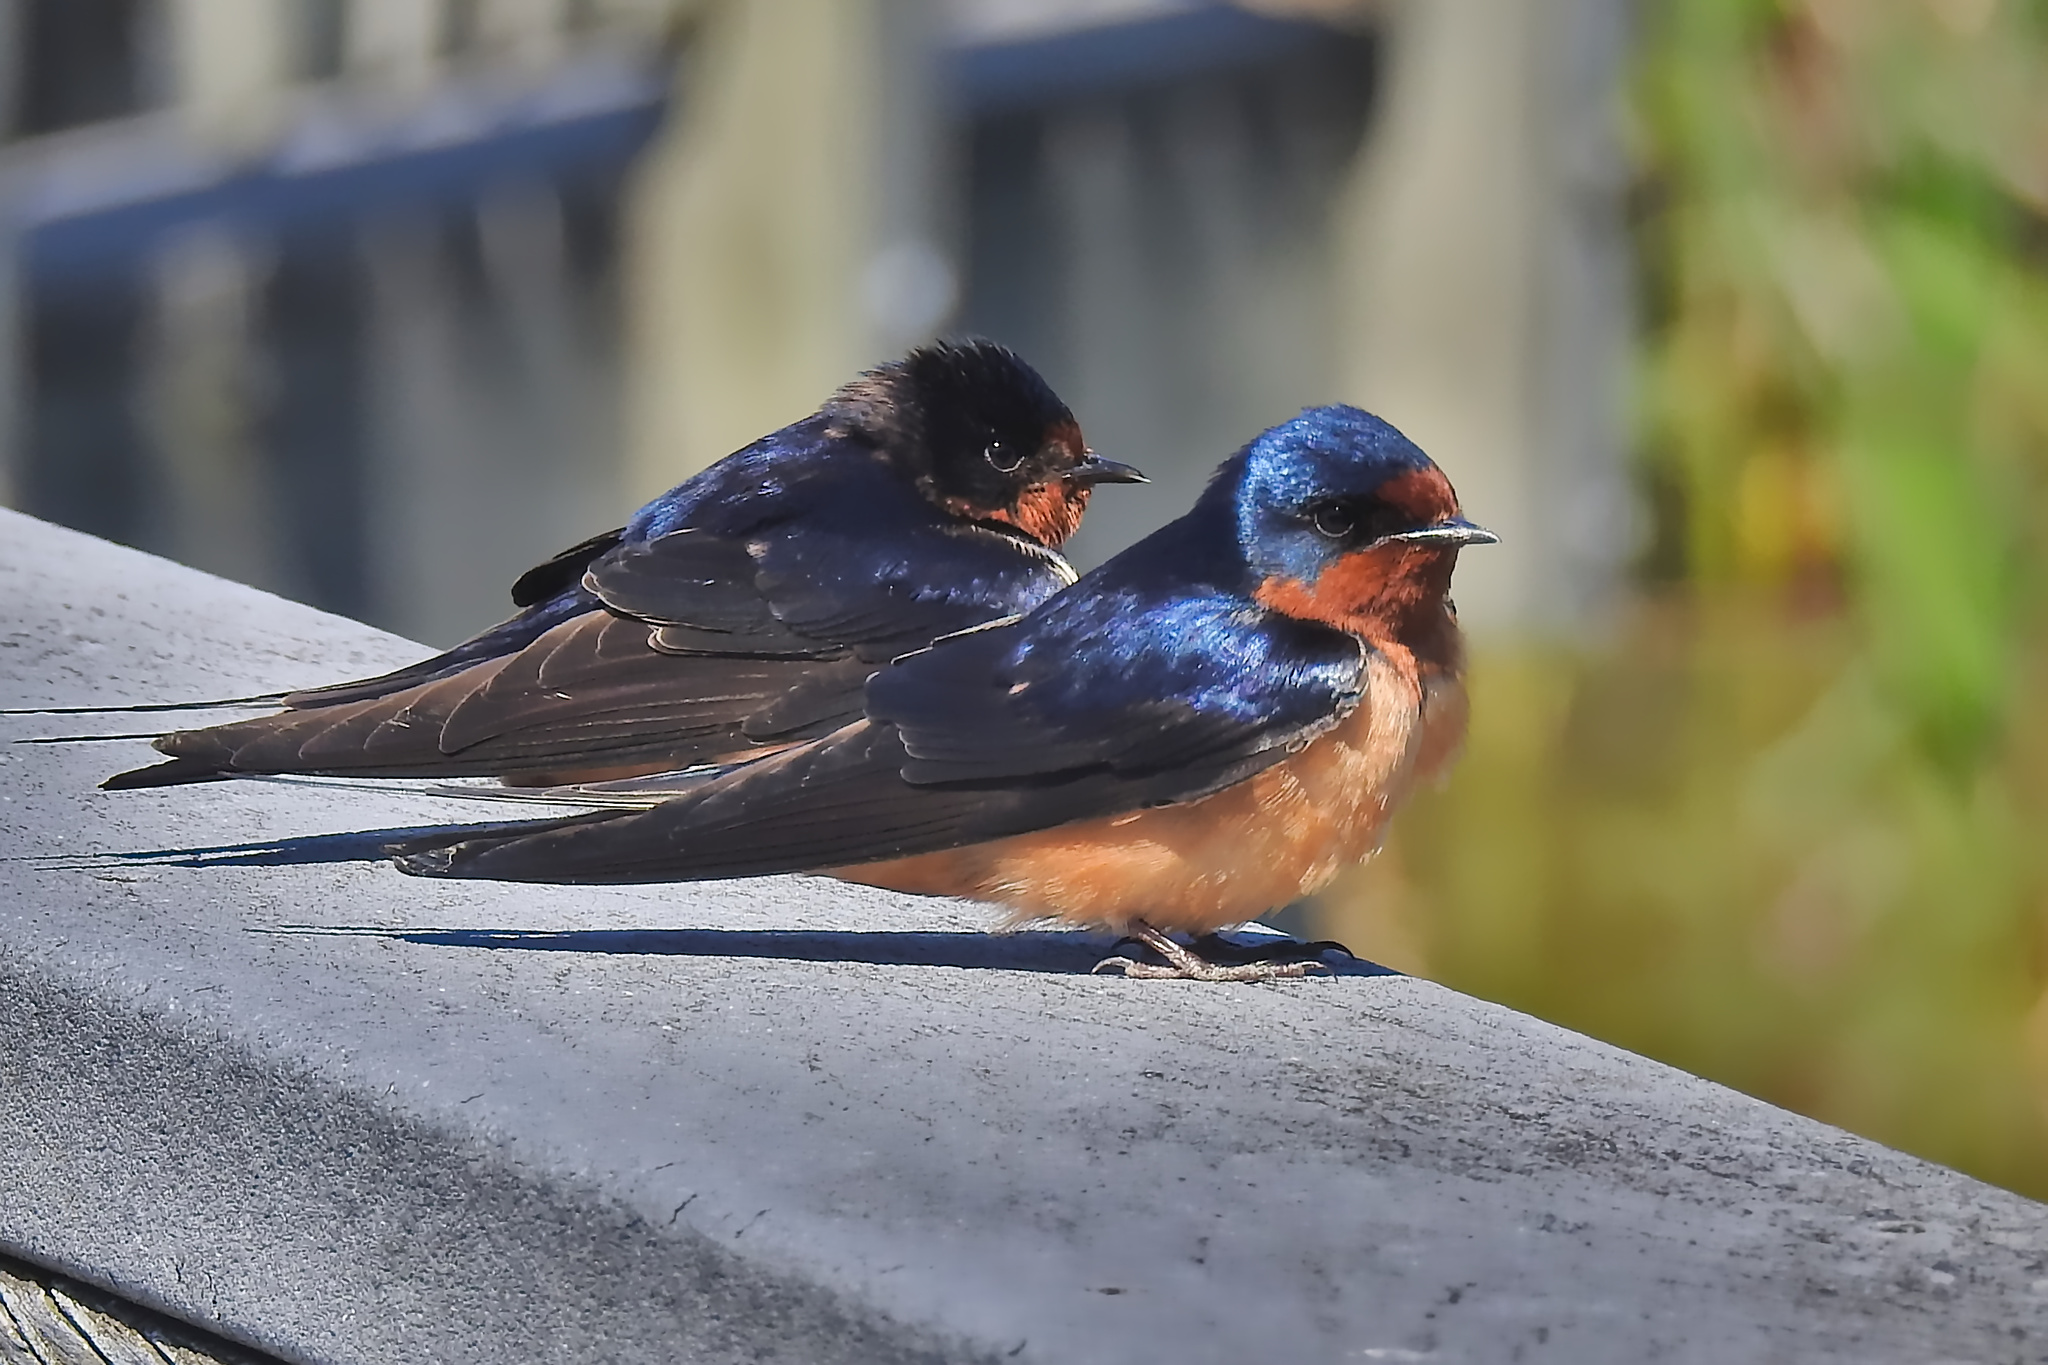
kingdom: Animalia
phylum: Chordata
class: Aves
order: Passeriformes
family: Hirundinidae
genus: Hirundo
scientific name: Hirundo rustica
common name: Barn swallow
